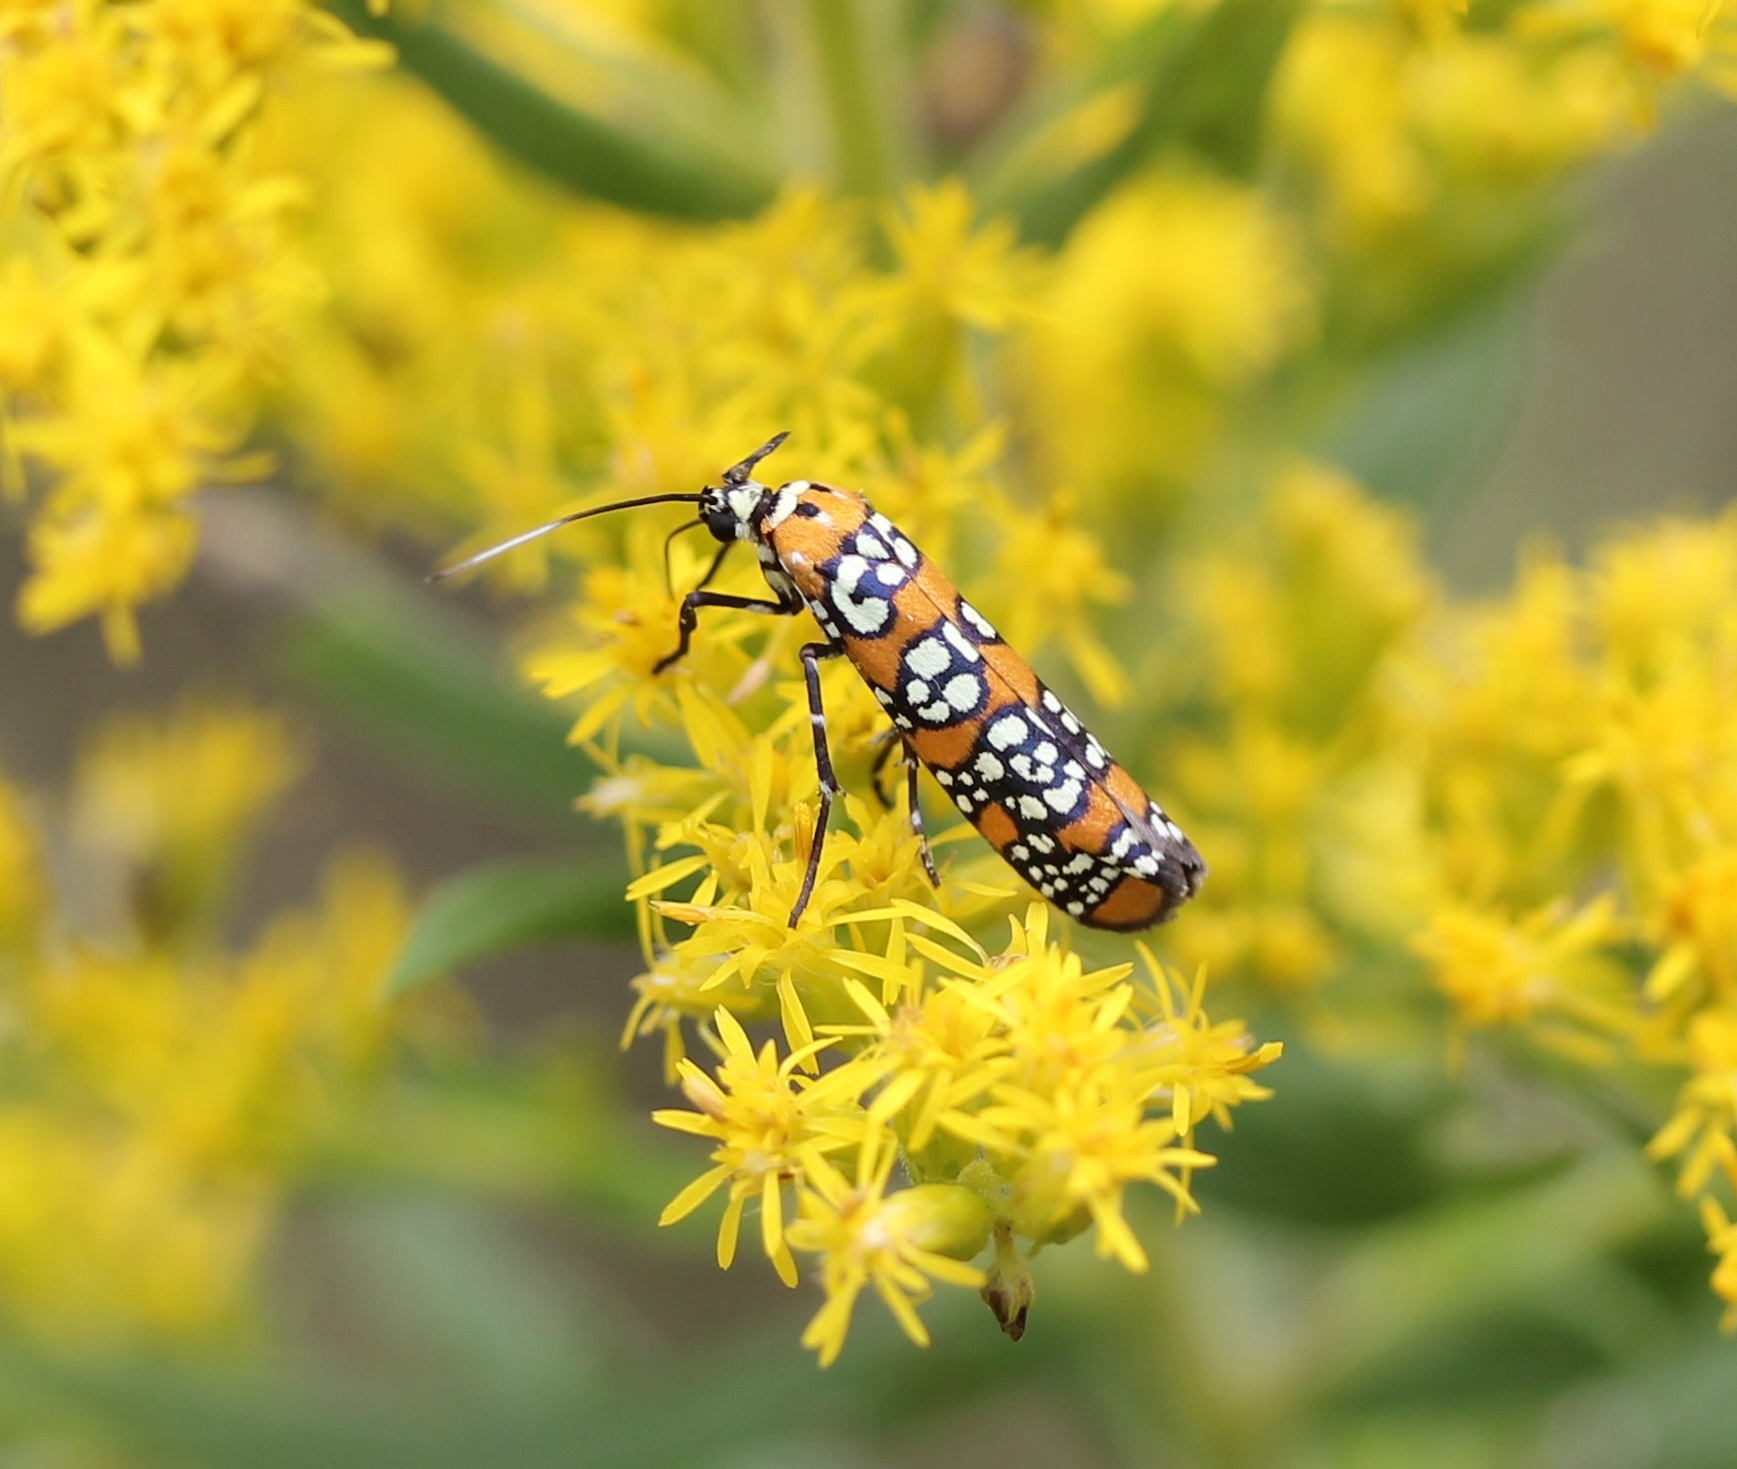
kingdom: Animalia
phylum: Arthropoda
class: Insecta
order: Lepidoptera
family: Attevidae
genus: Atteva
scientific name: Atteva punctella
